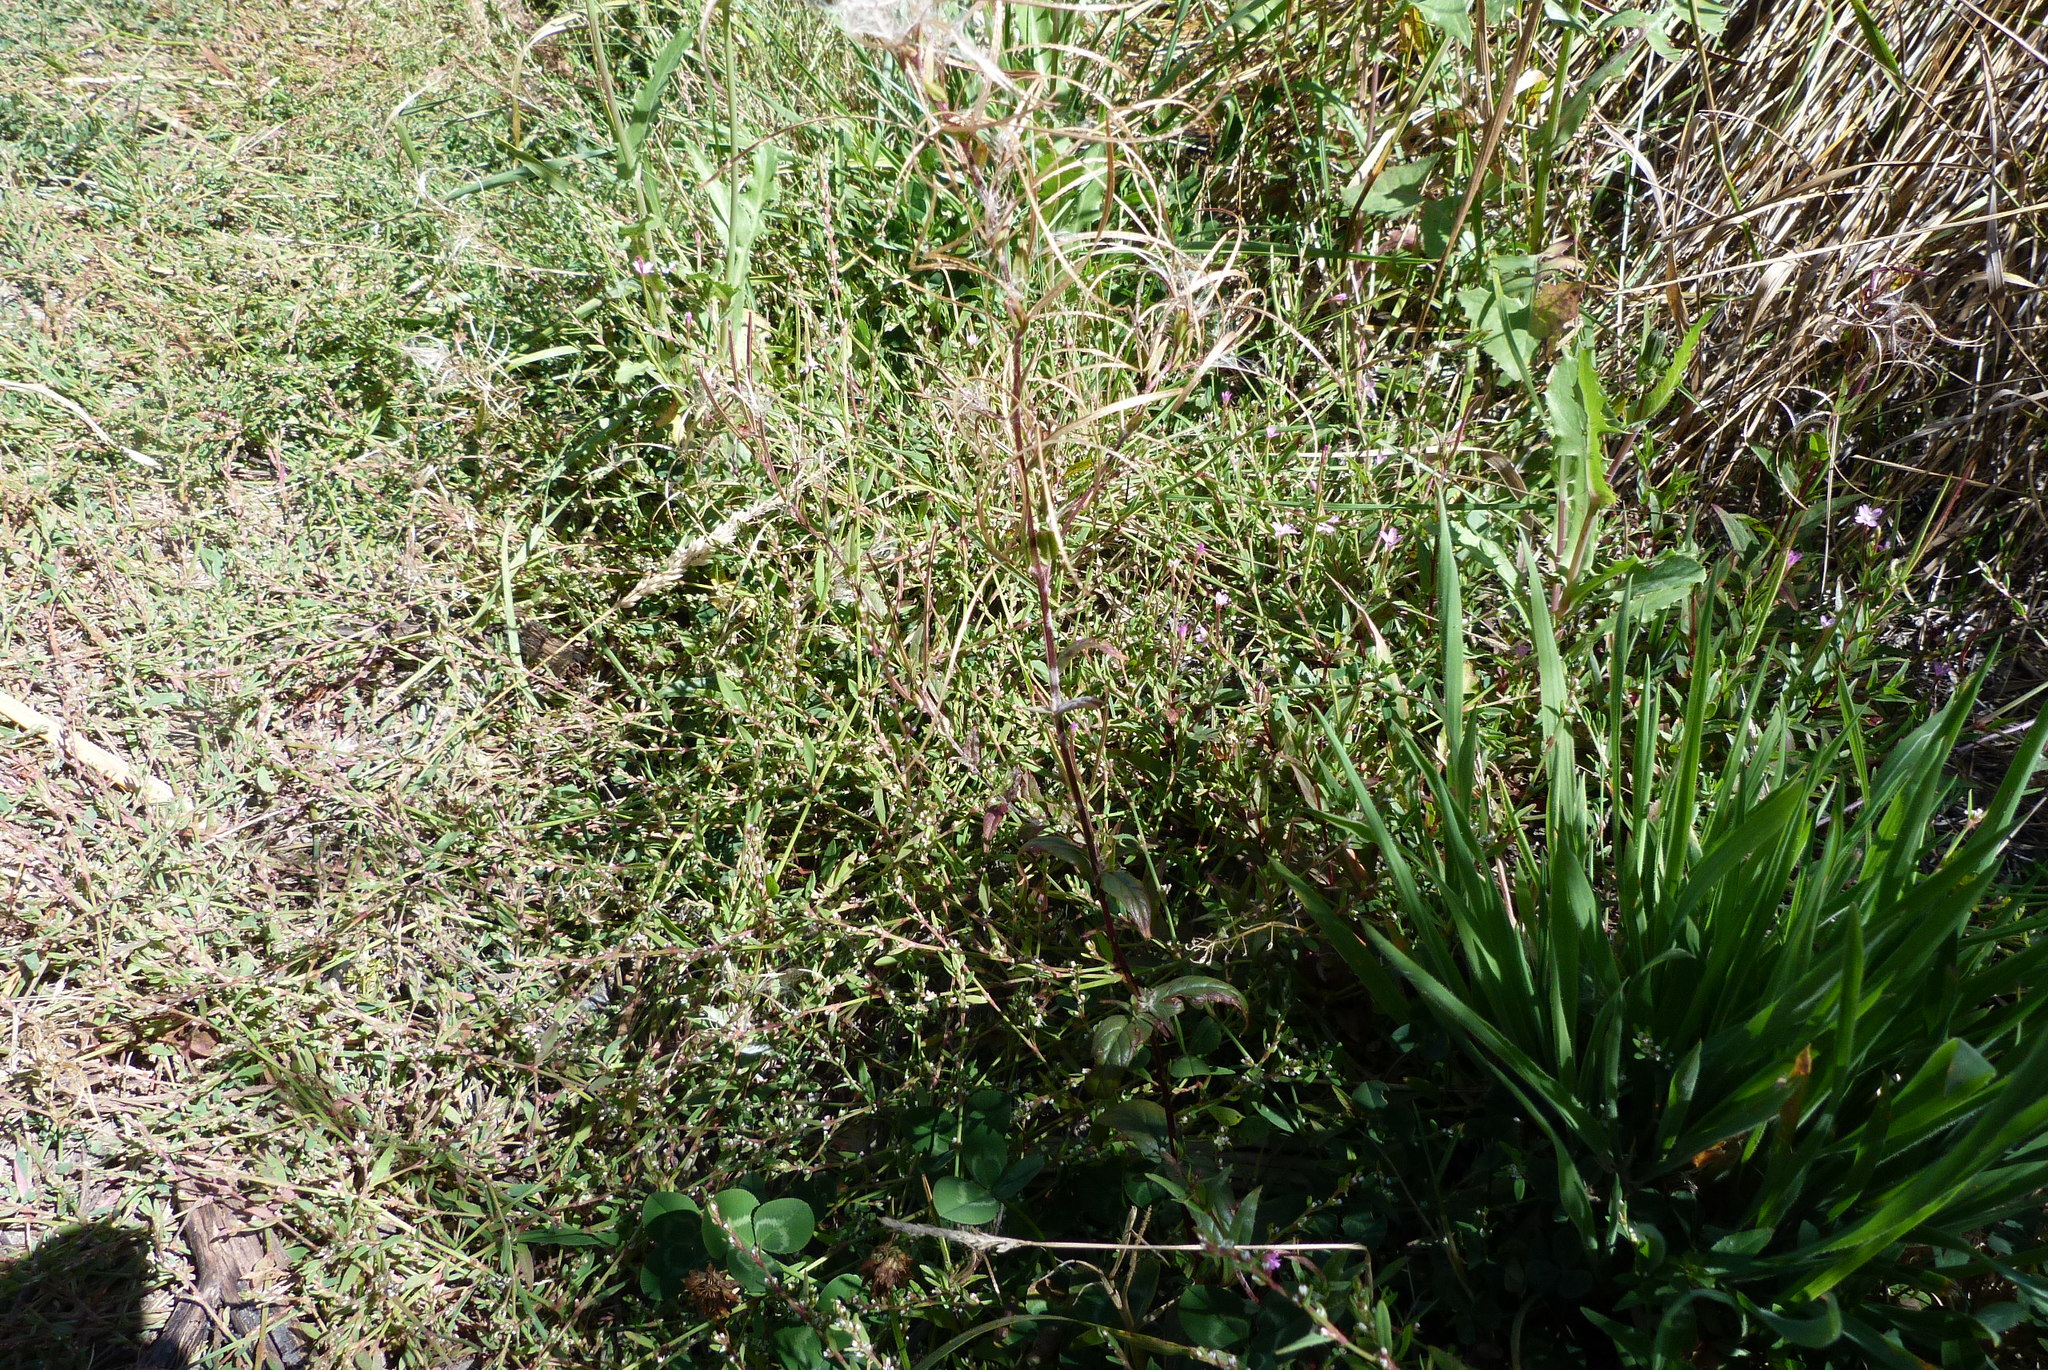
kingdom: Plantae
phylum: Tracheophyta
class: Magnoliopsida
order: Myrtales
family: Onagraceae
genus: Epilobium
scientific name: Epilobium billardierianum
